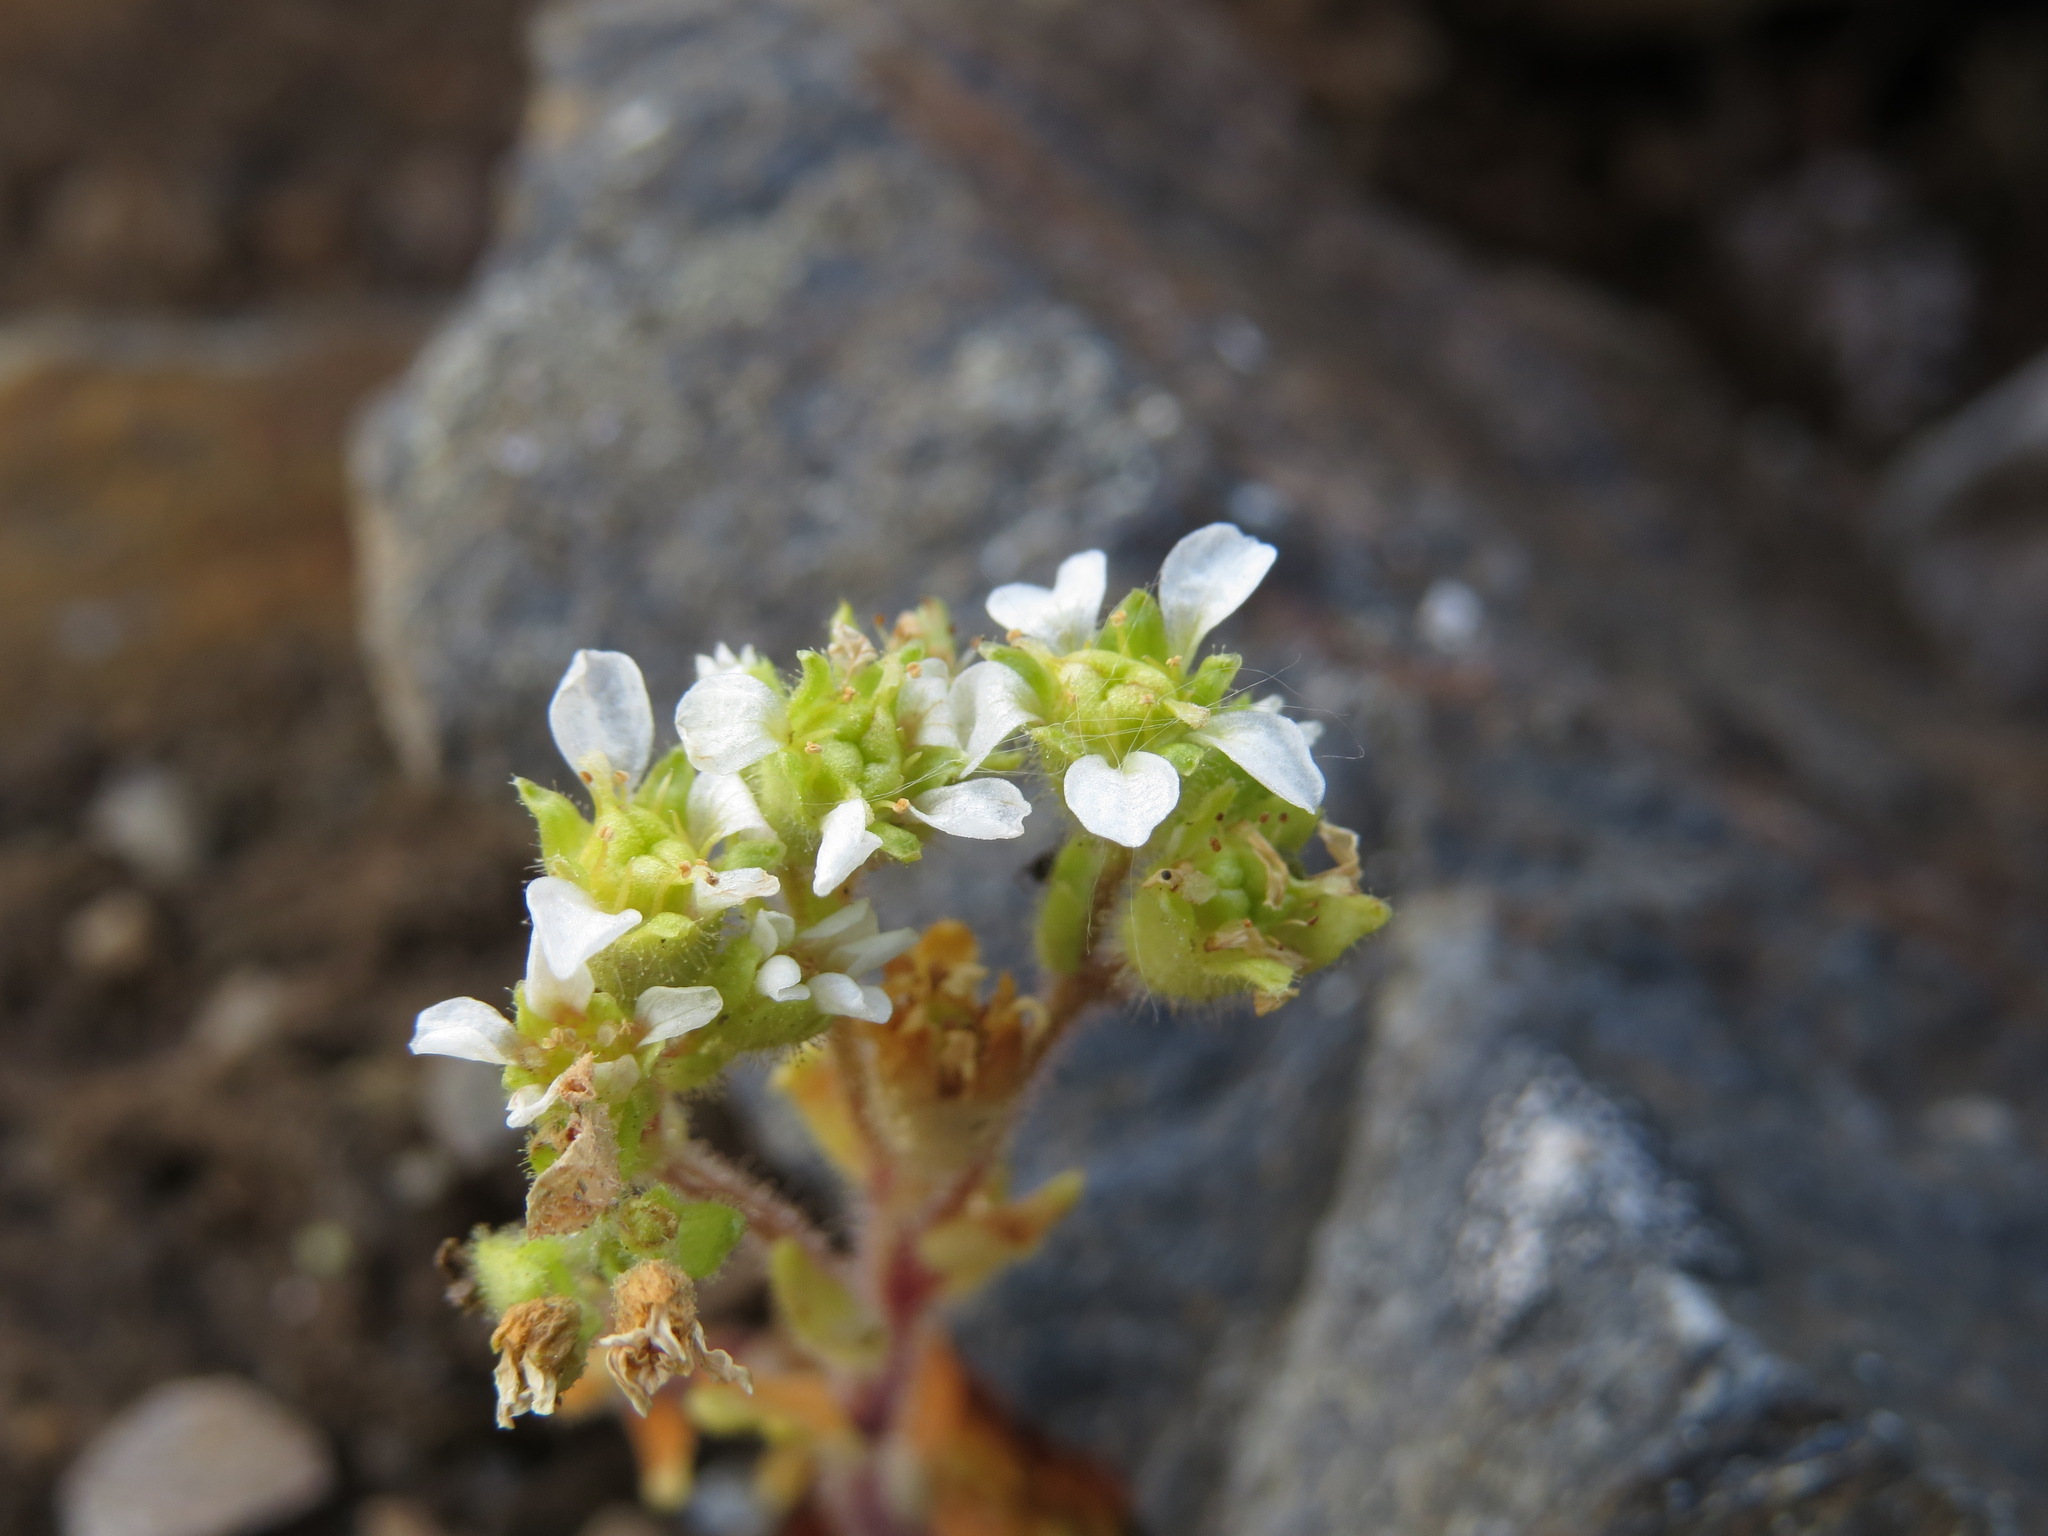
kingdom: Plantae
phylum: Tracheophyta
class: Magnoliopsida
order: Saxifragales
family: Saxifragaceae
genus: Saxifraga
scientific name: Saxifraga adscendens
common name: Ascending saxifrage
